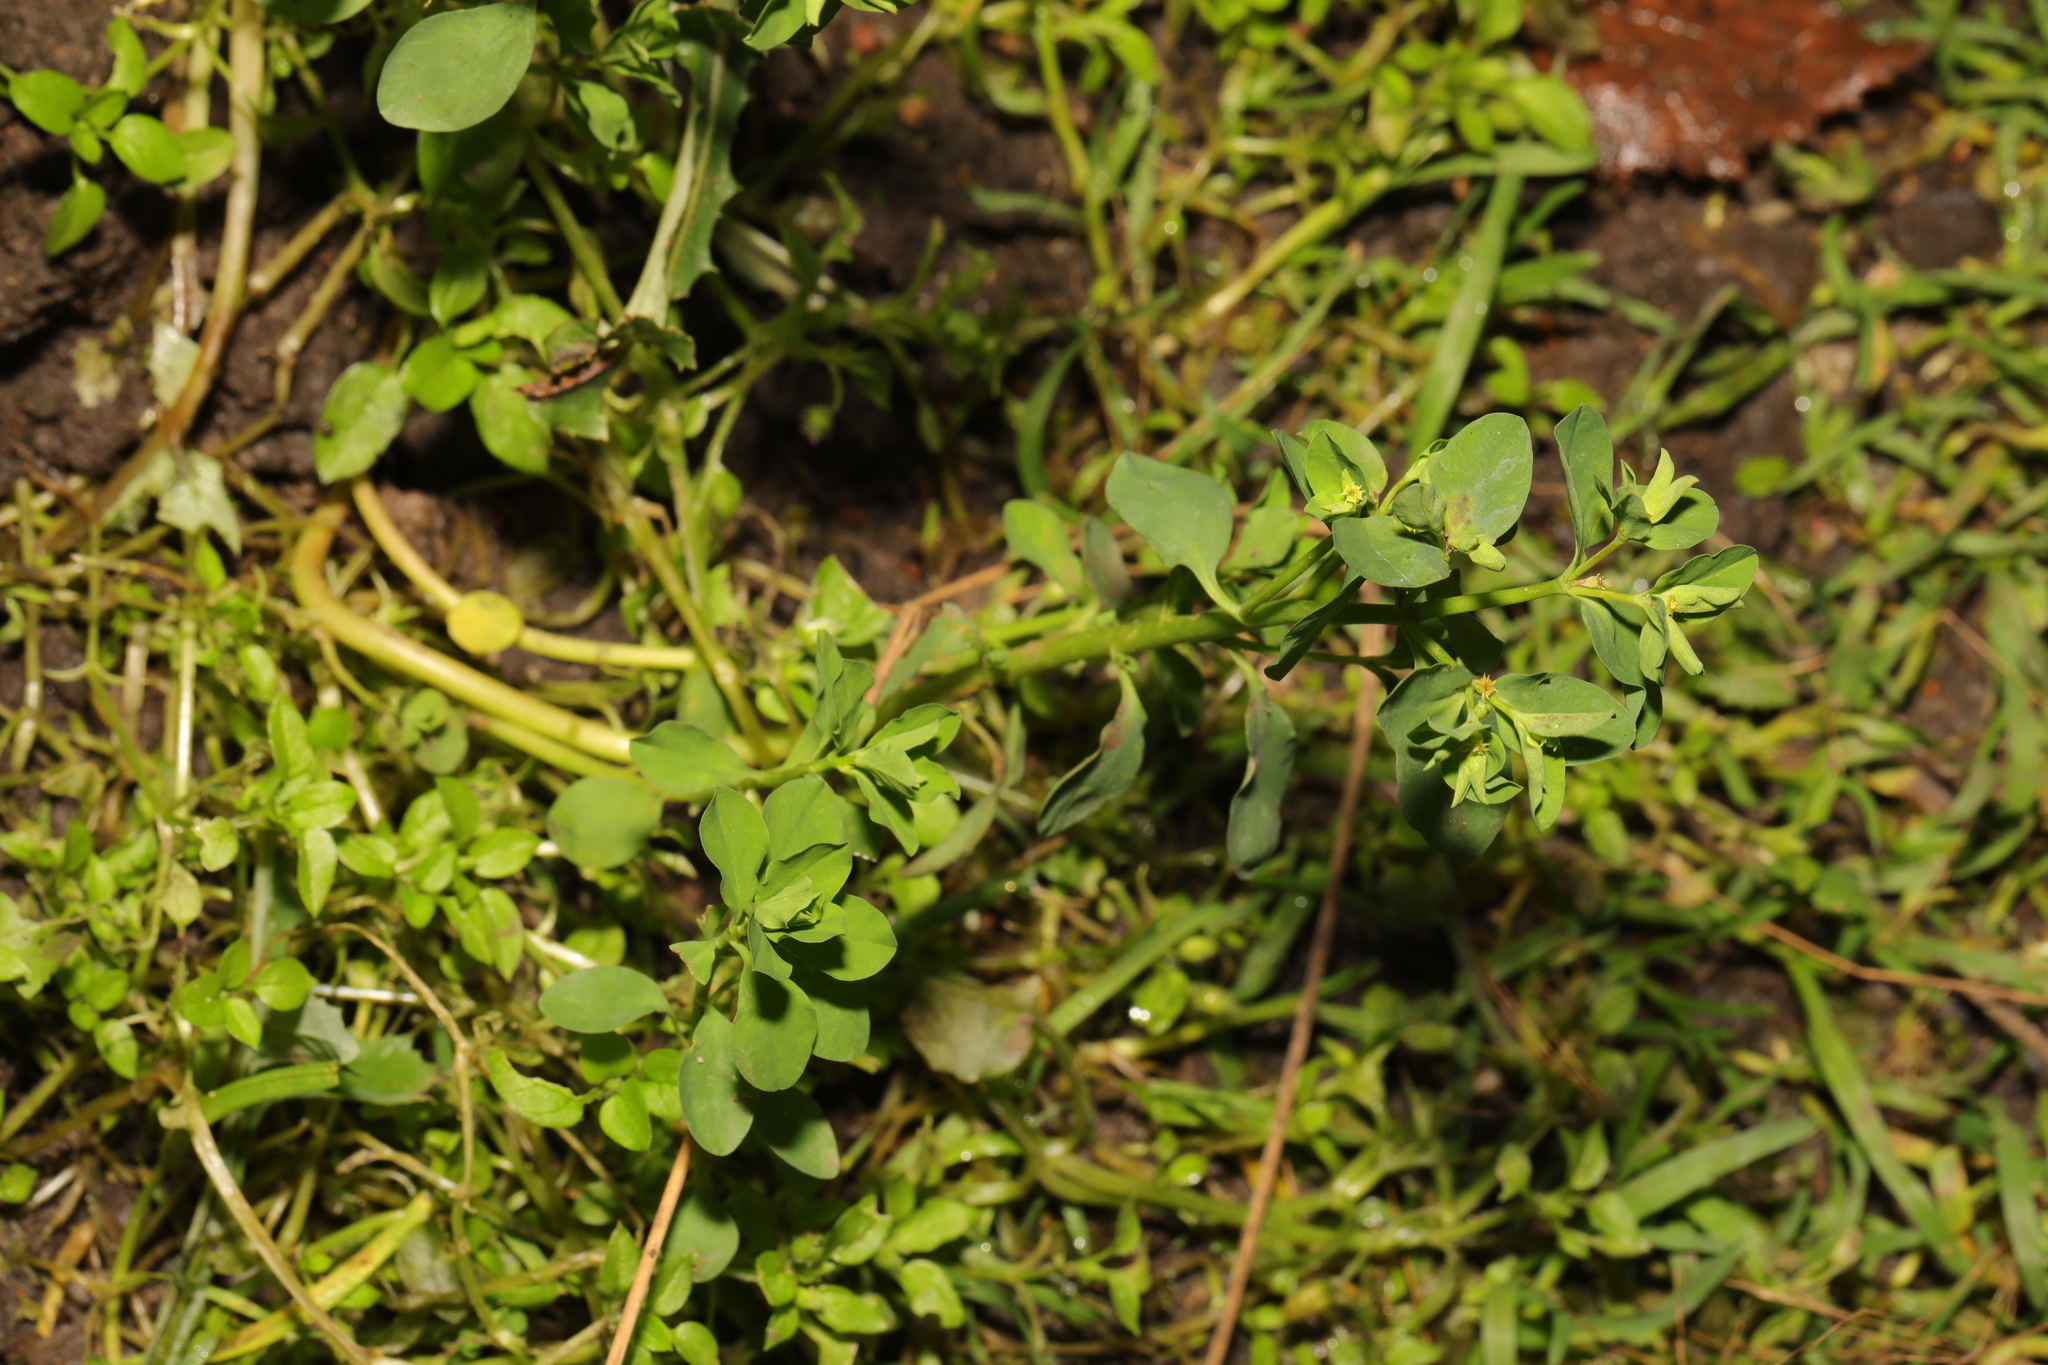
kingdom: Plantae
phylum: Tracheophyta
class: Magnoliopsida
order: Malpighiales
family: Euphorbiaceae
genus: Euphorbia
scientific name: Euphorbia peplus
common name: Petty spurge
